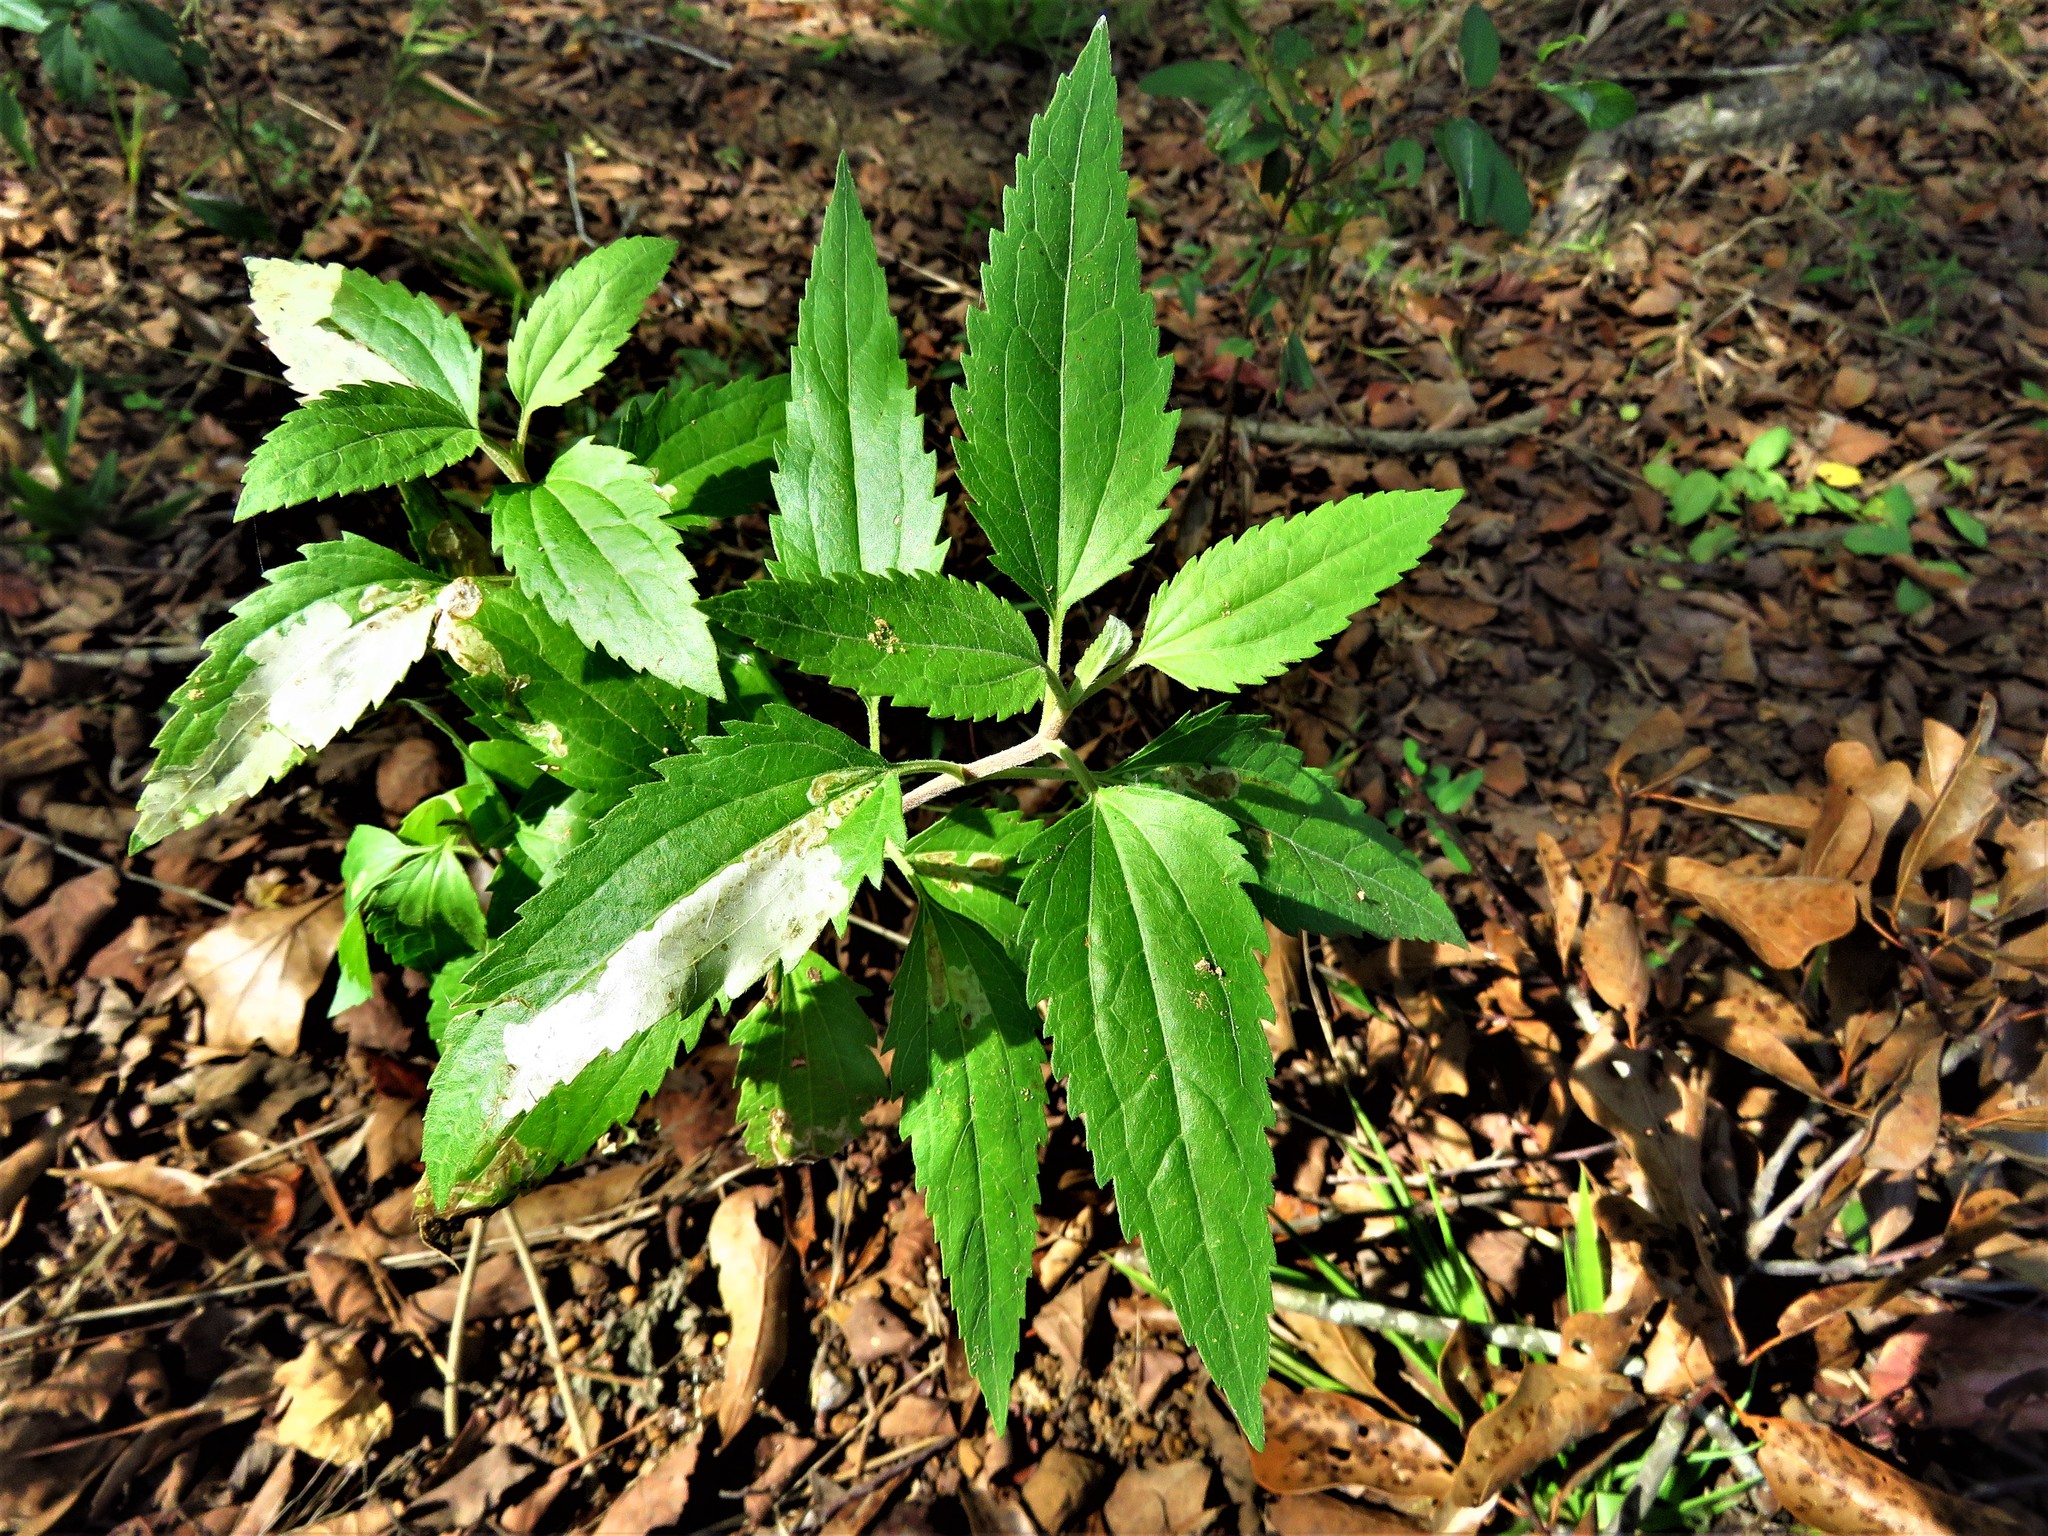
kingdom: Plantae
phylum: Tracheophyta
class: Magnoliopsida
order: Asterales
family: Asteraceae
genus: Eupatorium
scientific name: Eupatorium serotinum
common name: Late boneset
